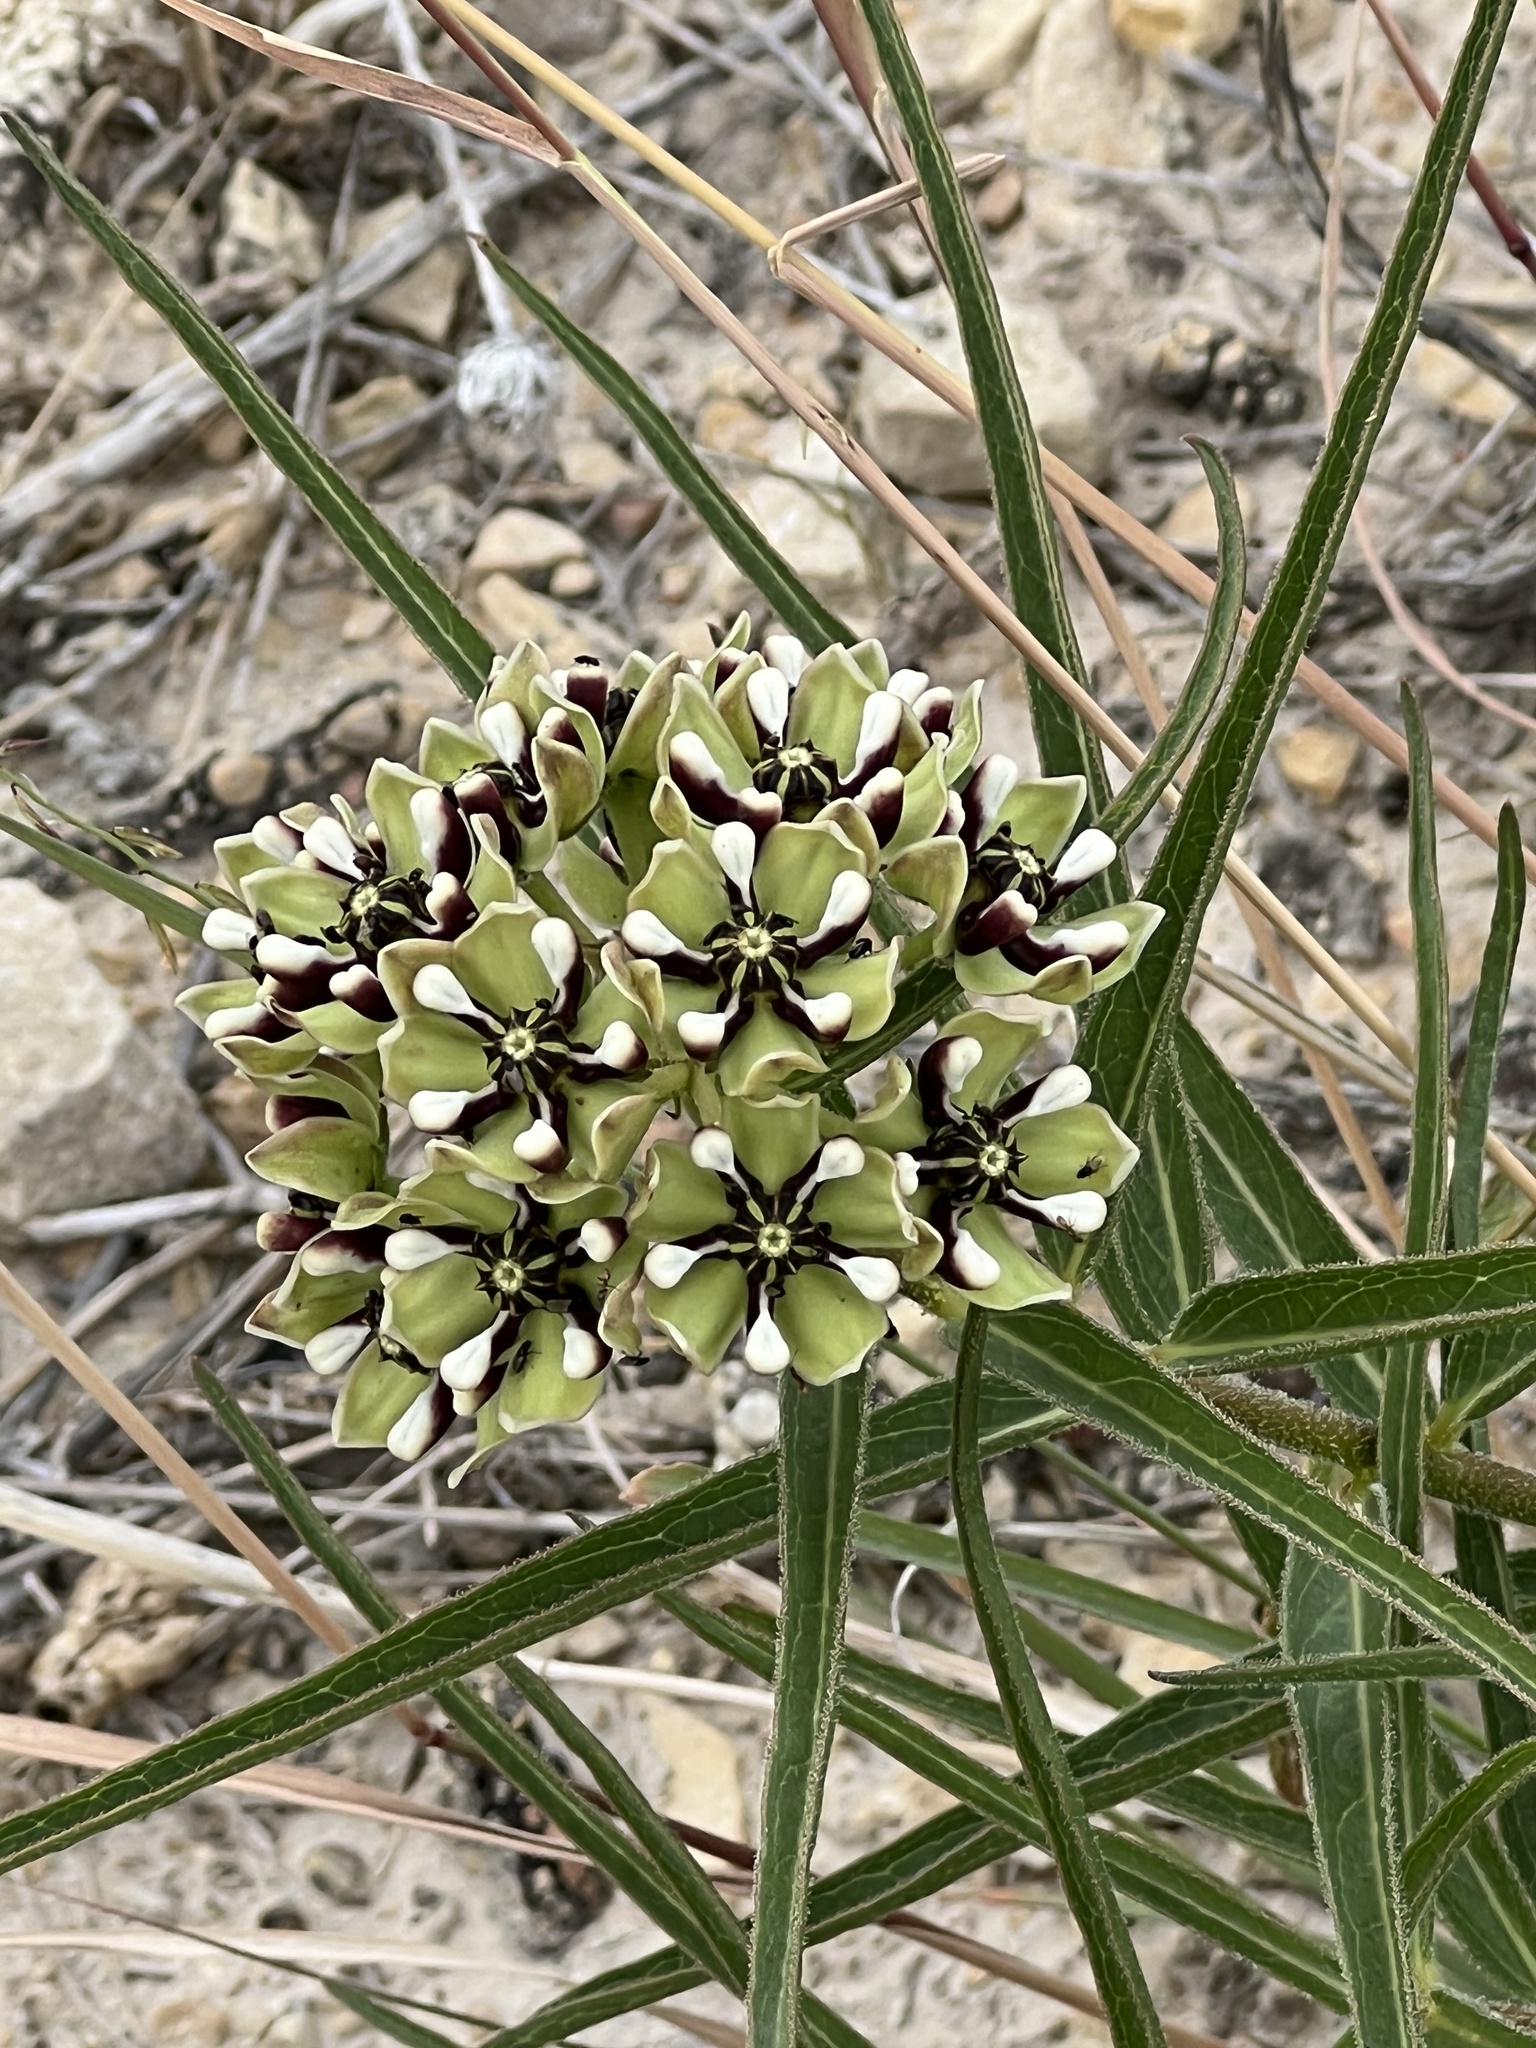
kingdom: Plantae
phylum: Tracheophyta
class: Magnoliopsida
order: Gentianales
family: Apocynaceae
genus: Asclepias
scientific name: Asclepias asperula
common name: Antelope horns
